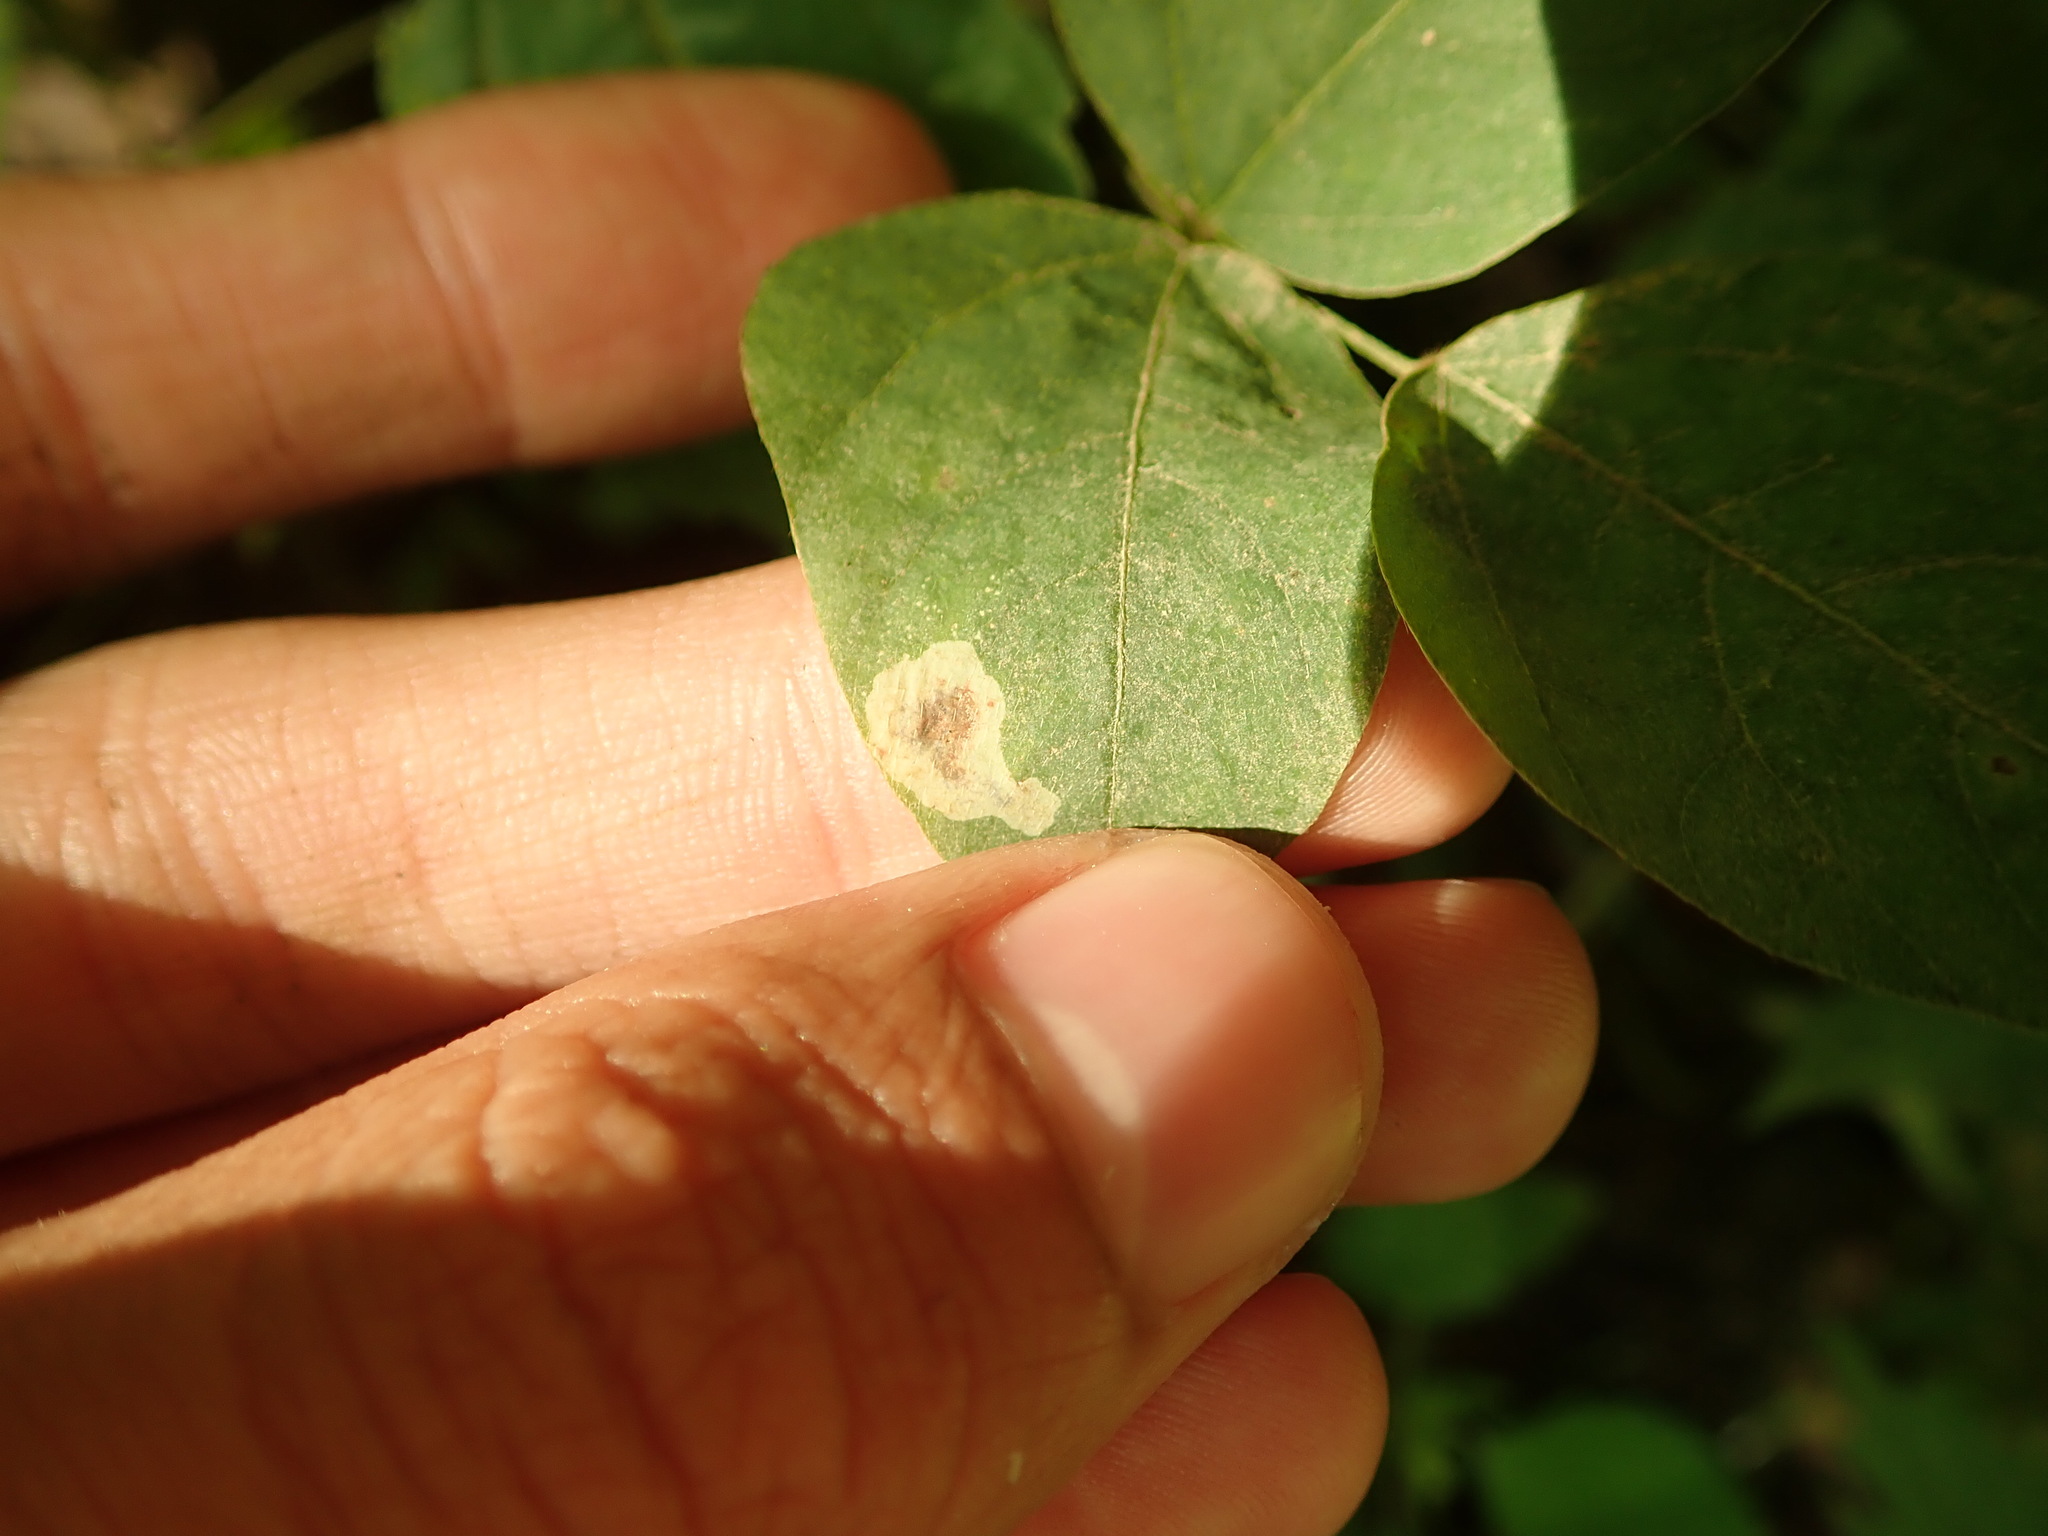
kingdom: Animalia
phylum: Arthropoda
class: Insecta
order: Lepidoptera
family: Gracillariidae
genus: Leucanthiza
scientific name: Leucanthiza amphicarpeaefoliella
